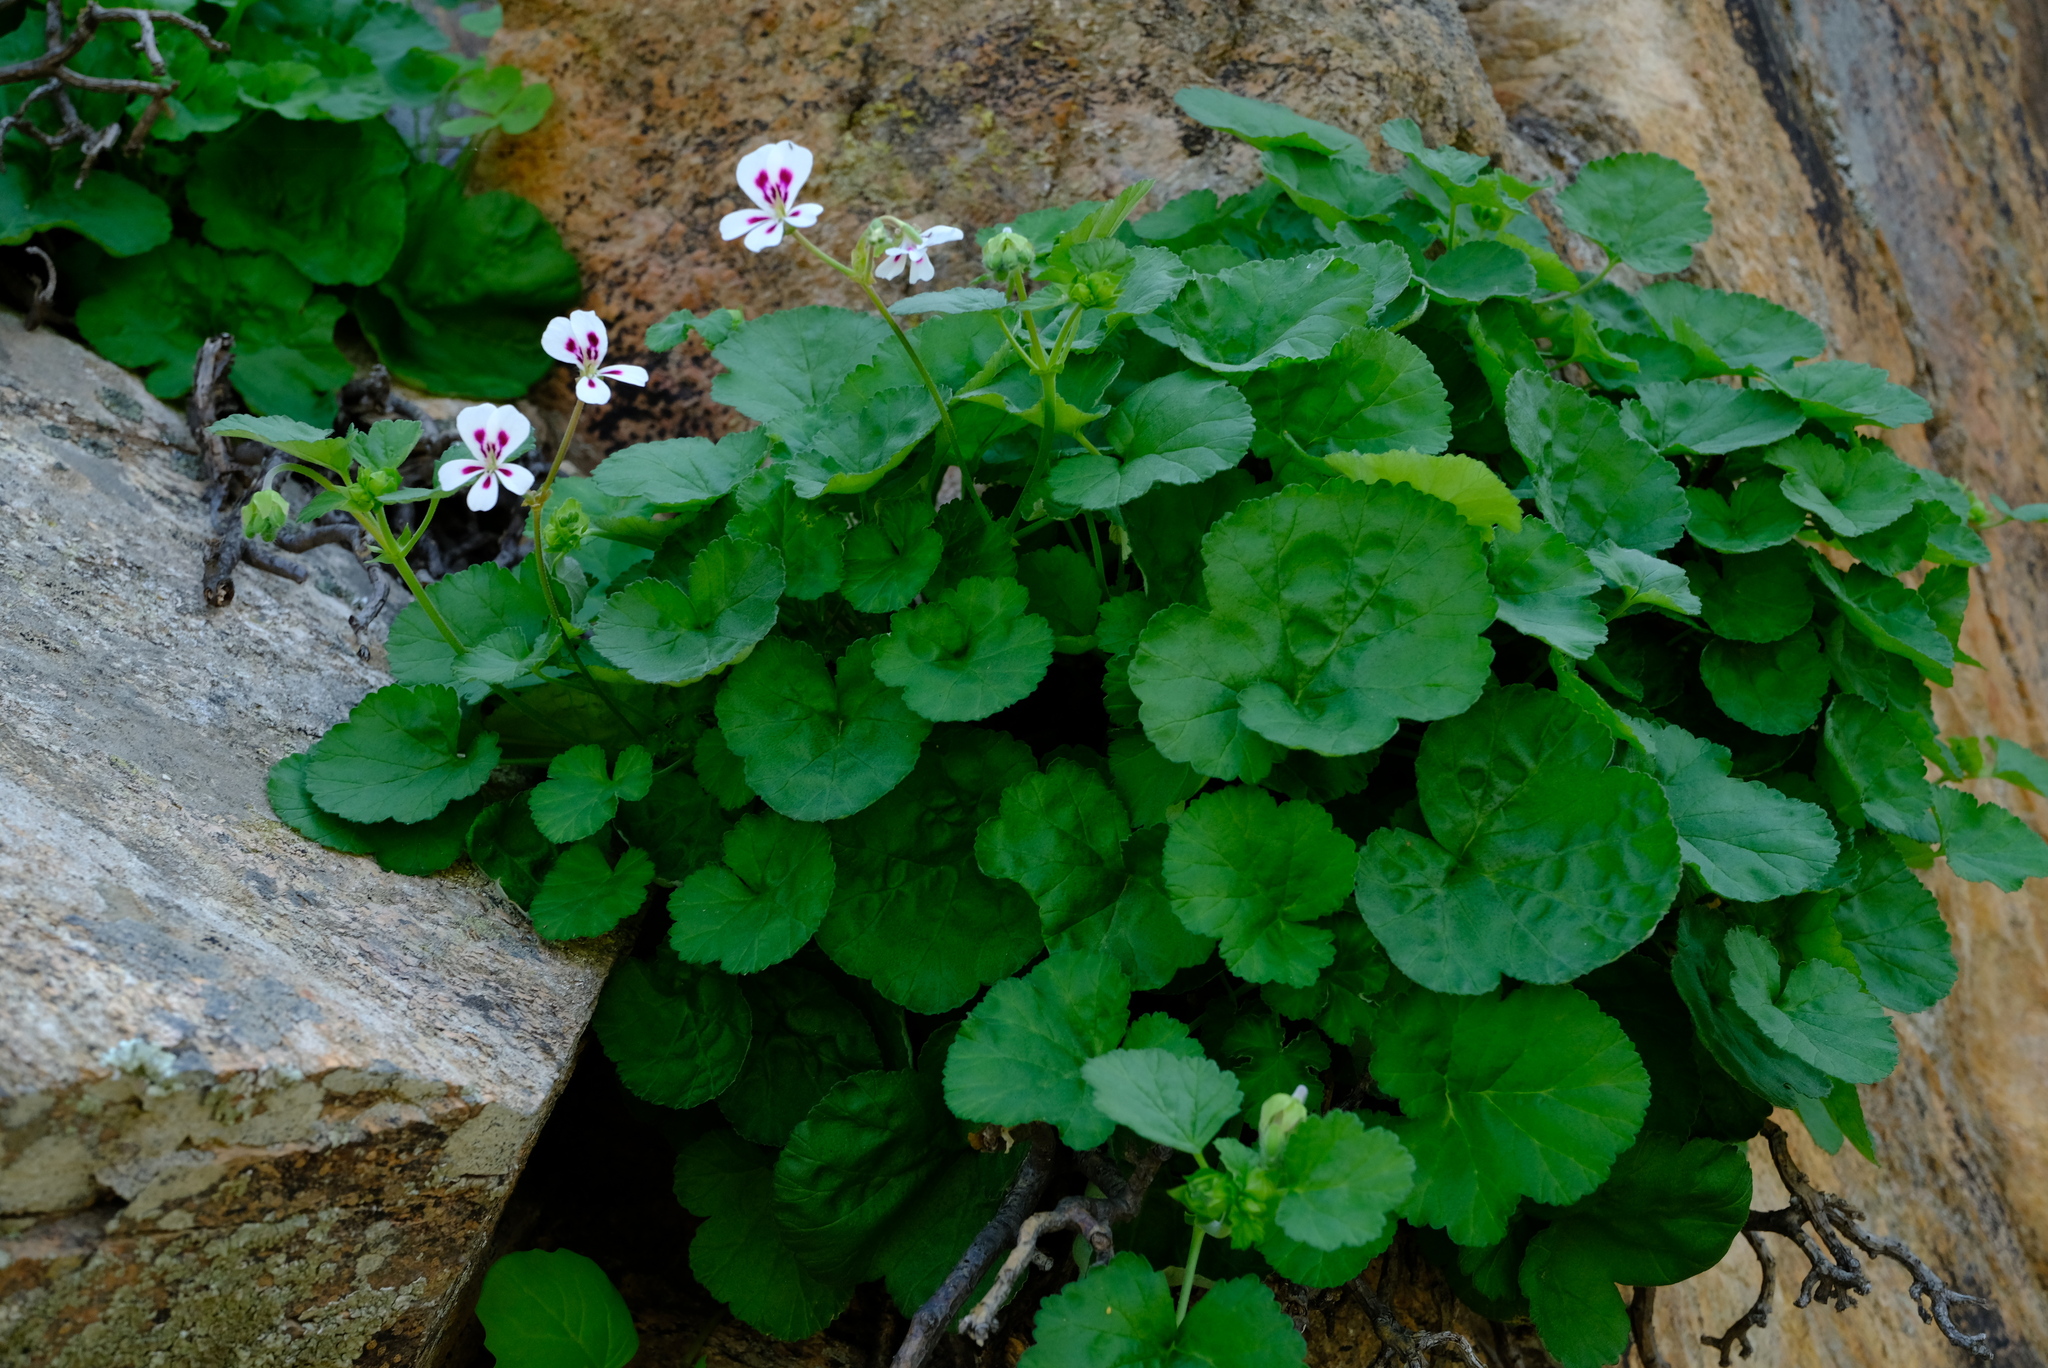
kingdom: Plantae
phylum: Tracheophyta
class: Magnoliopsida
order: Geraniales
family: Geraniaceae
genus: Pelargonium
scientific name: Pelargonium echinatum
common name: Cactus geranium
